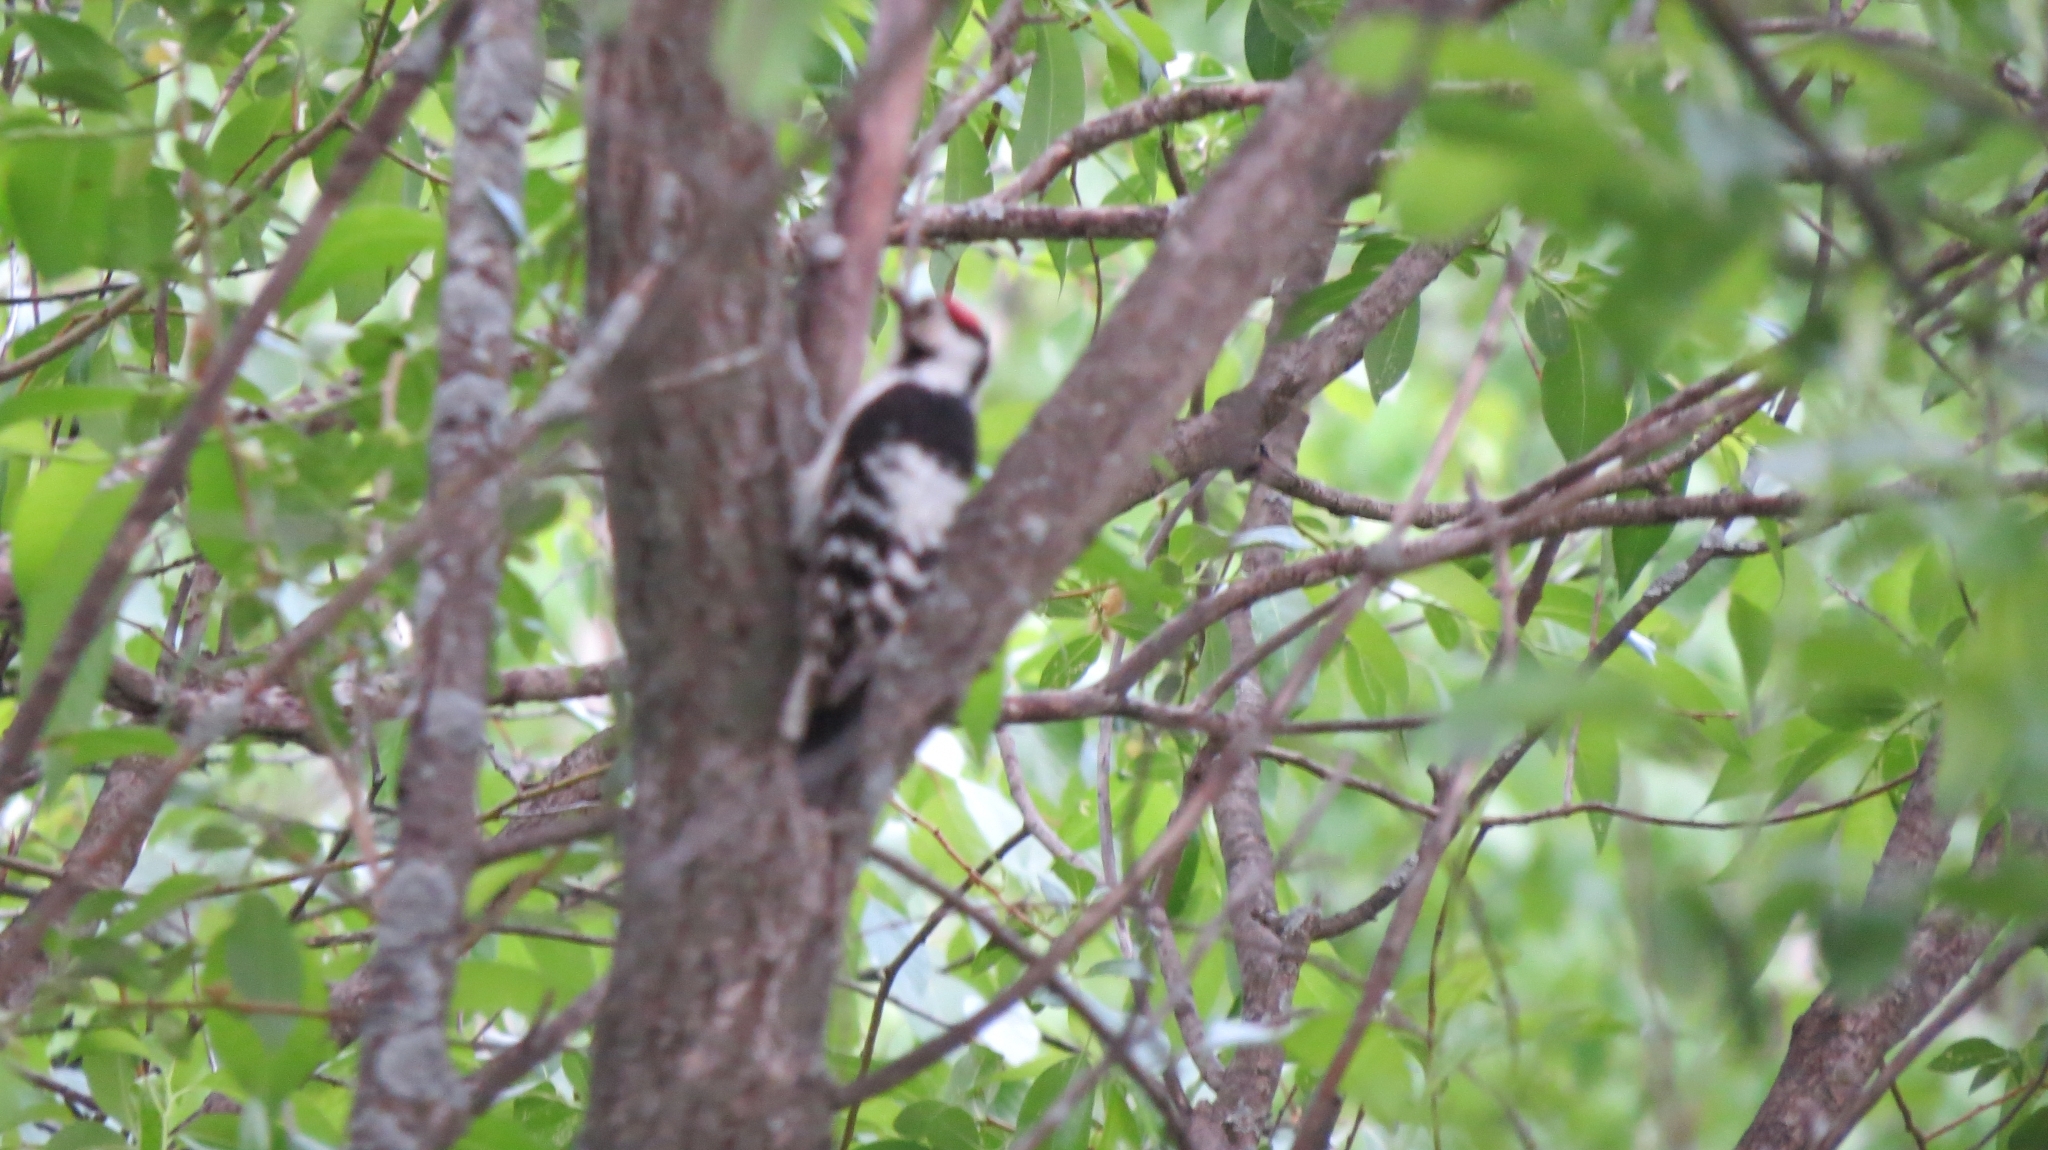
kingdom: Animalia
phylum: Chordata
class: Aves
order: Piciformes
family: Picidae
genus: Dendrocopos
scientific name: Dendrocopos leucotos
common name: White-backed woodpecker
